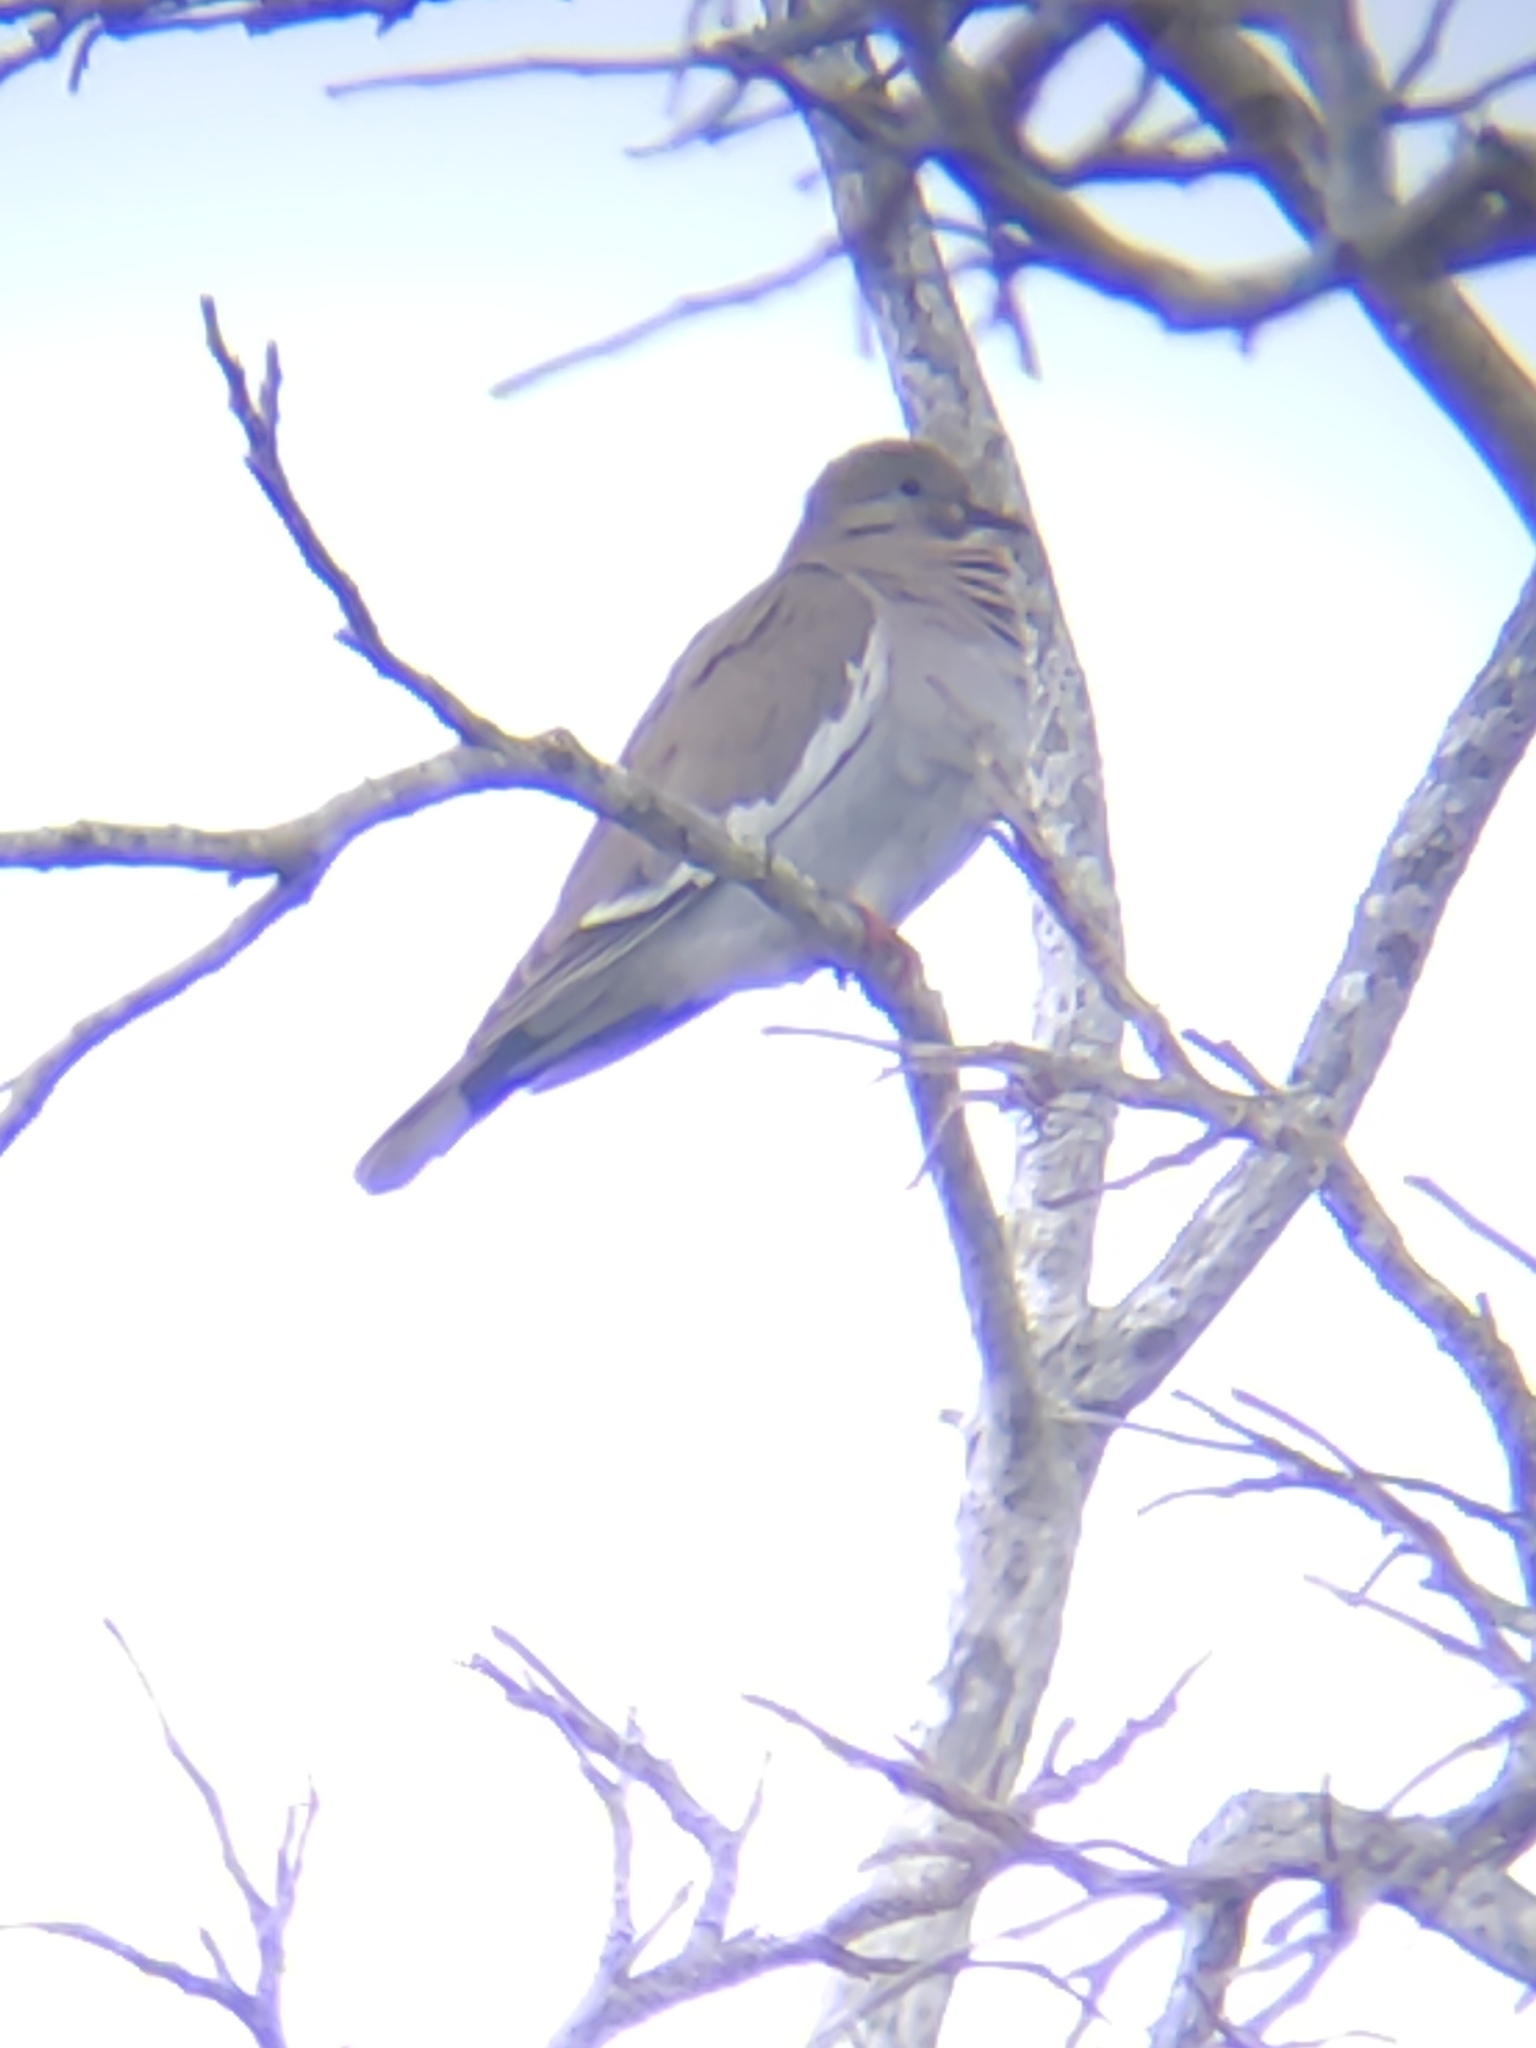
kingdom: Animalia
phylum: Chordata
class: Aves
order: Columbiformes
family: Columbidae
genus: Zenaida
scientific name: Zenaida asiatica
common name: White-winged dove
